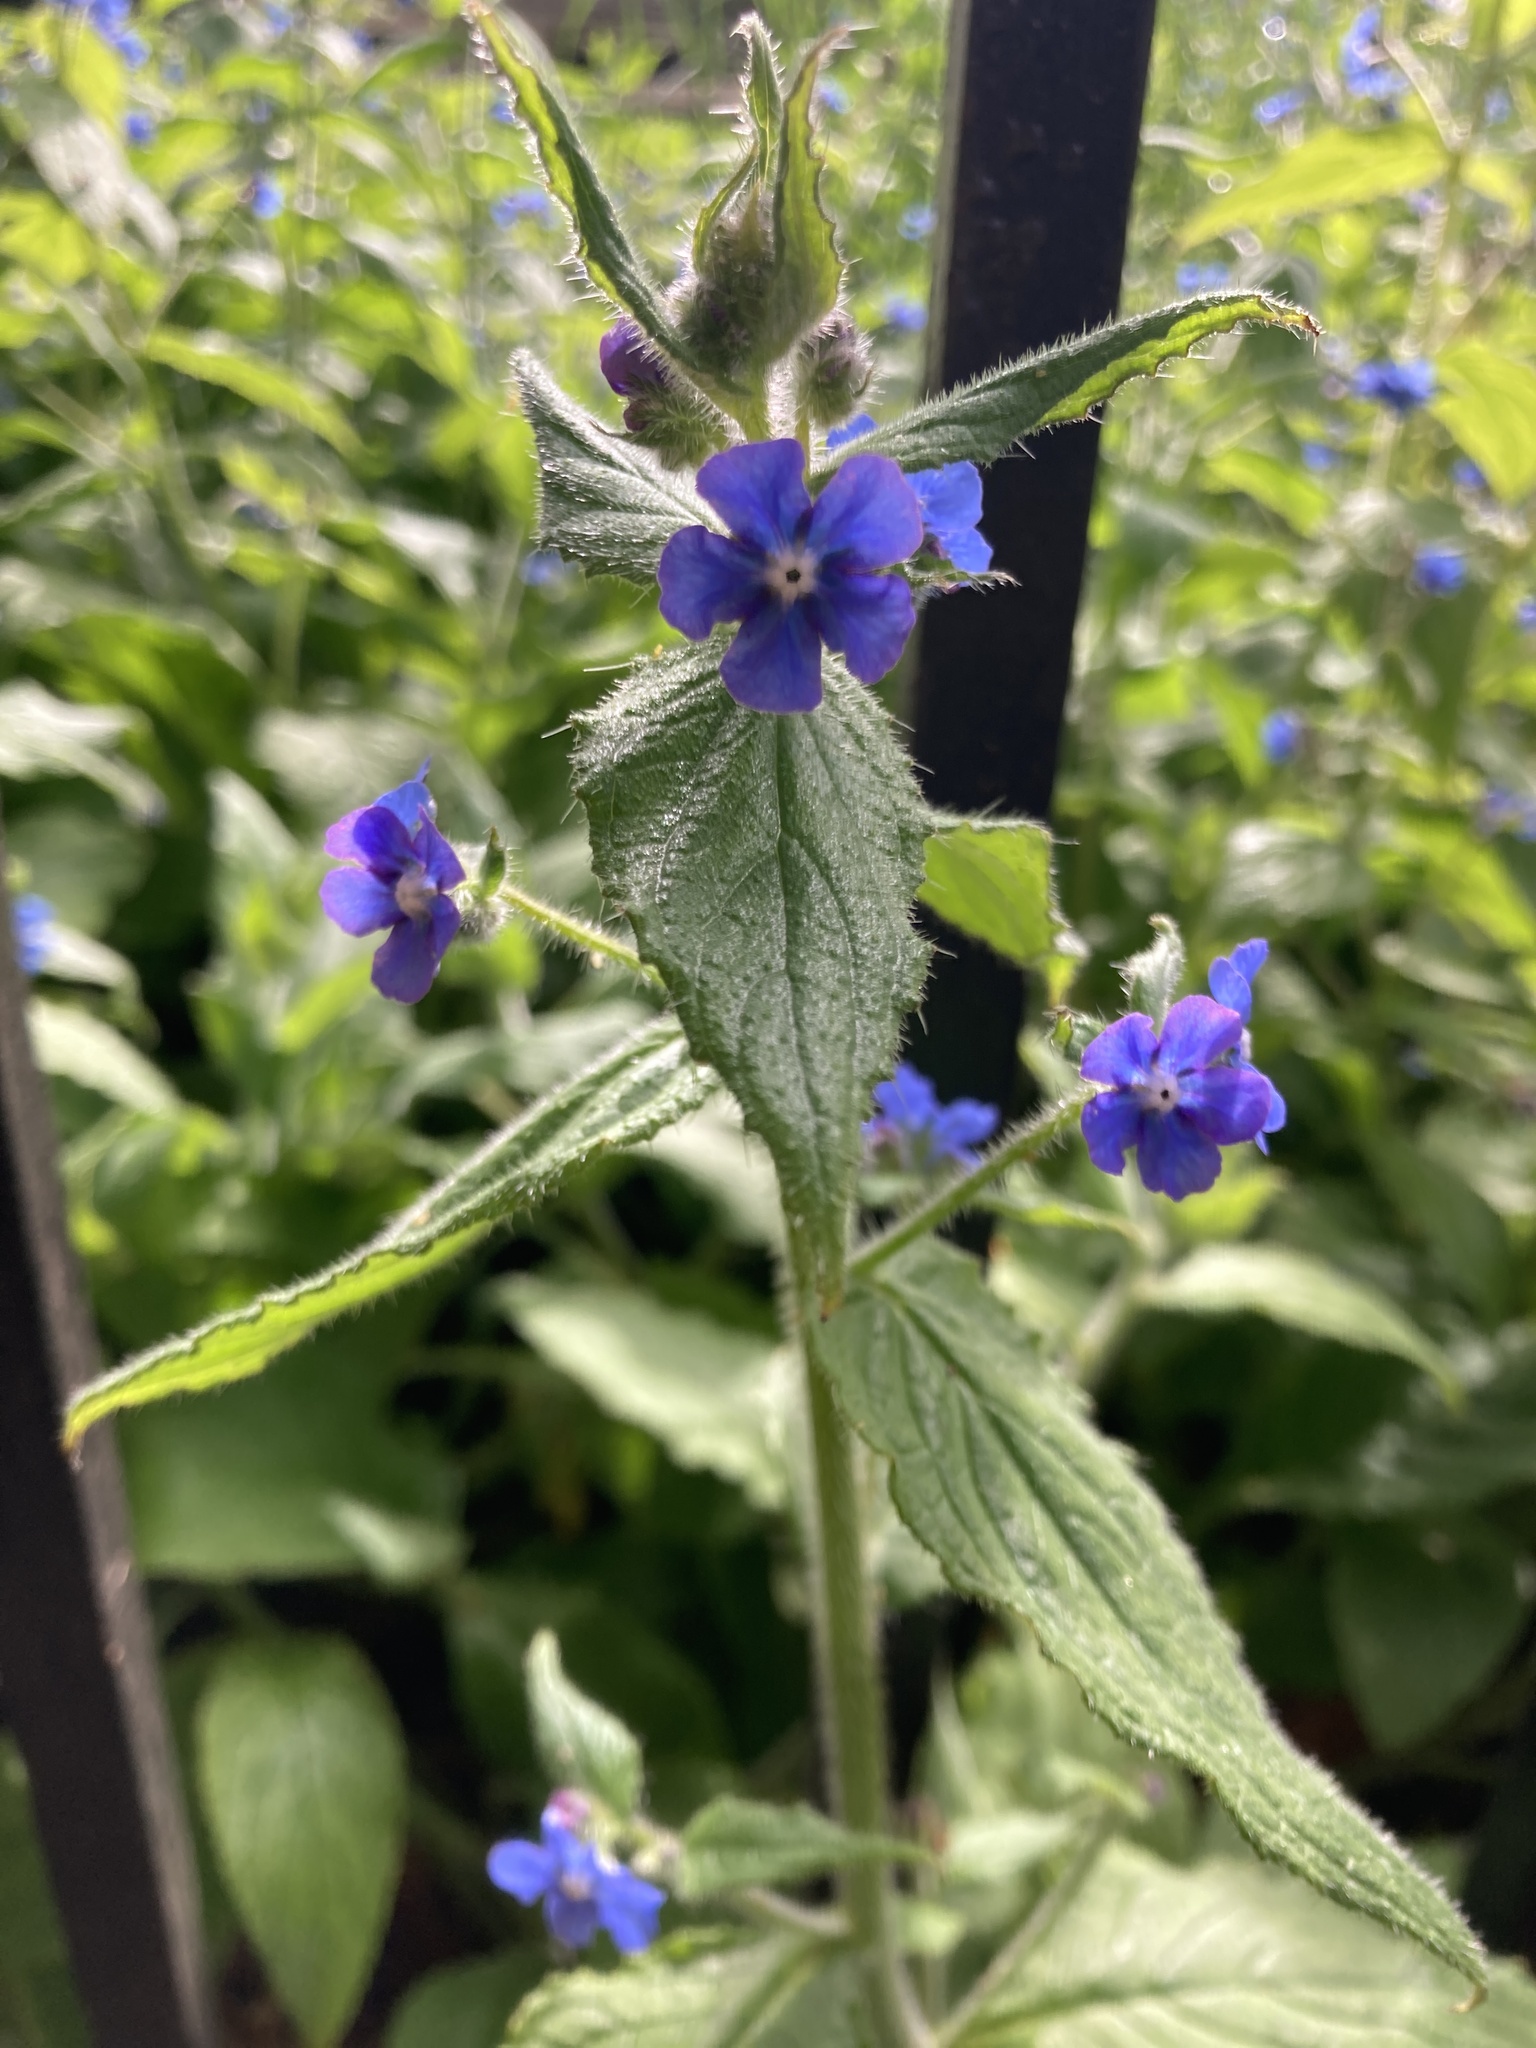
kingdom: Plantae
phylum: Tracheophyta
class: Magnoliopsida
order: Boraginales
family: Boraginaceae
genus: Pentaglottis
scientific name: Pentaglottis sempervirens
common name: Green alkanet
